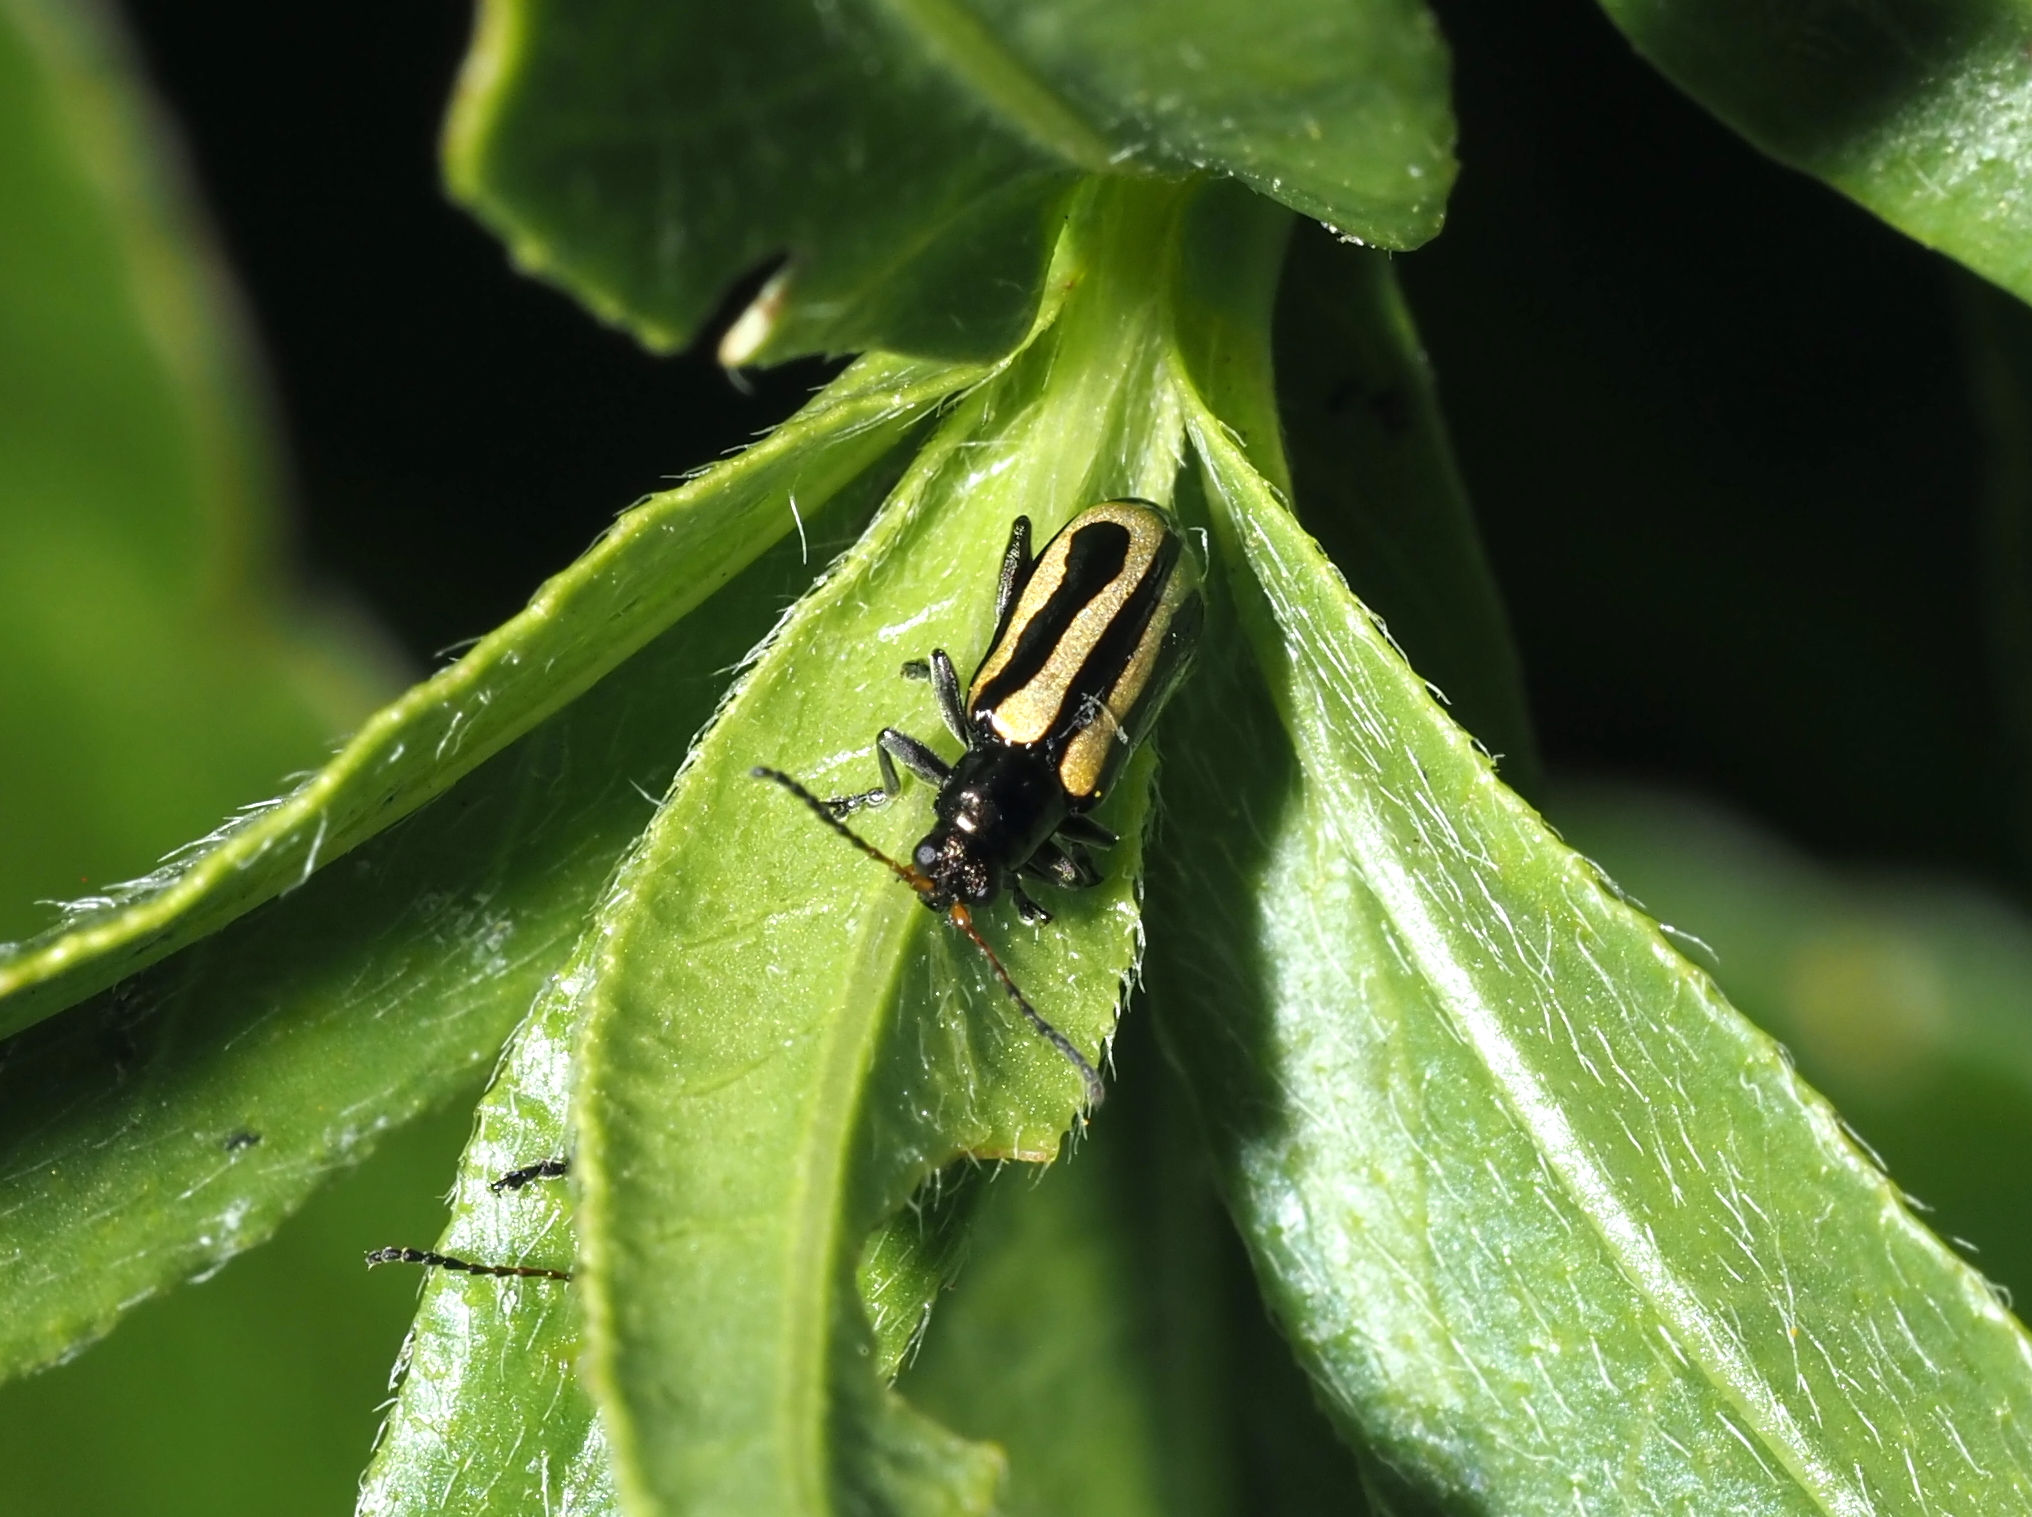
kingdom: Animalia
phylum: Arthropoda
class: Insecta
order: Coleoptera
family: Chrysomelidae
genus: Agasicles
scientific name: Agasicles hygrophila
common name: Alligatorweed flea beetle
